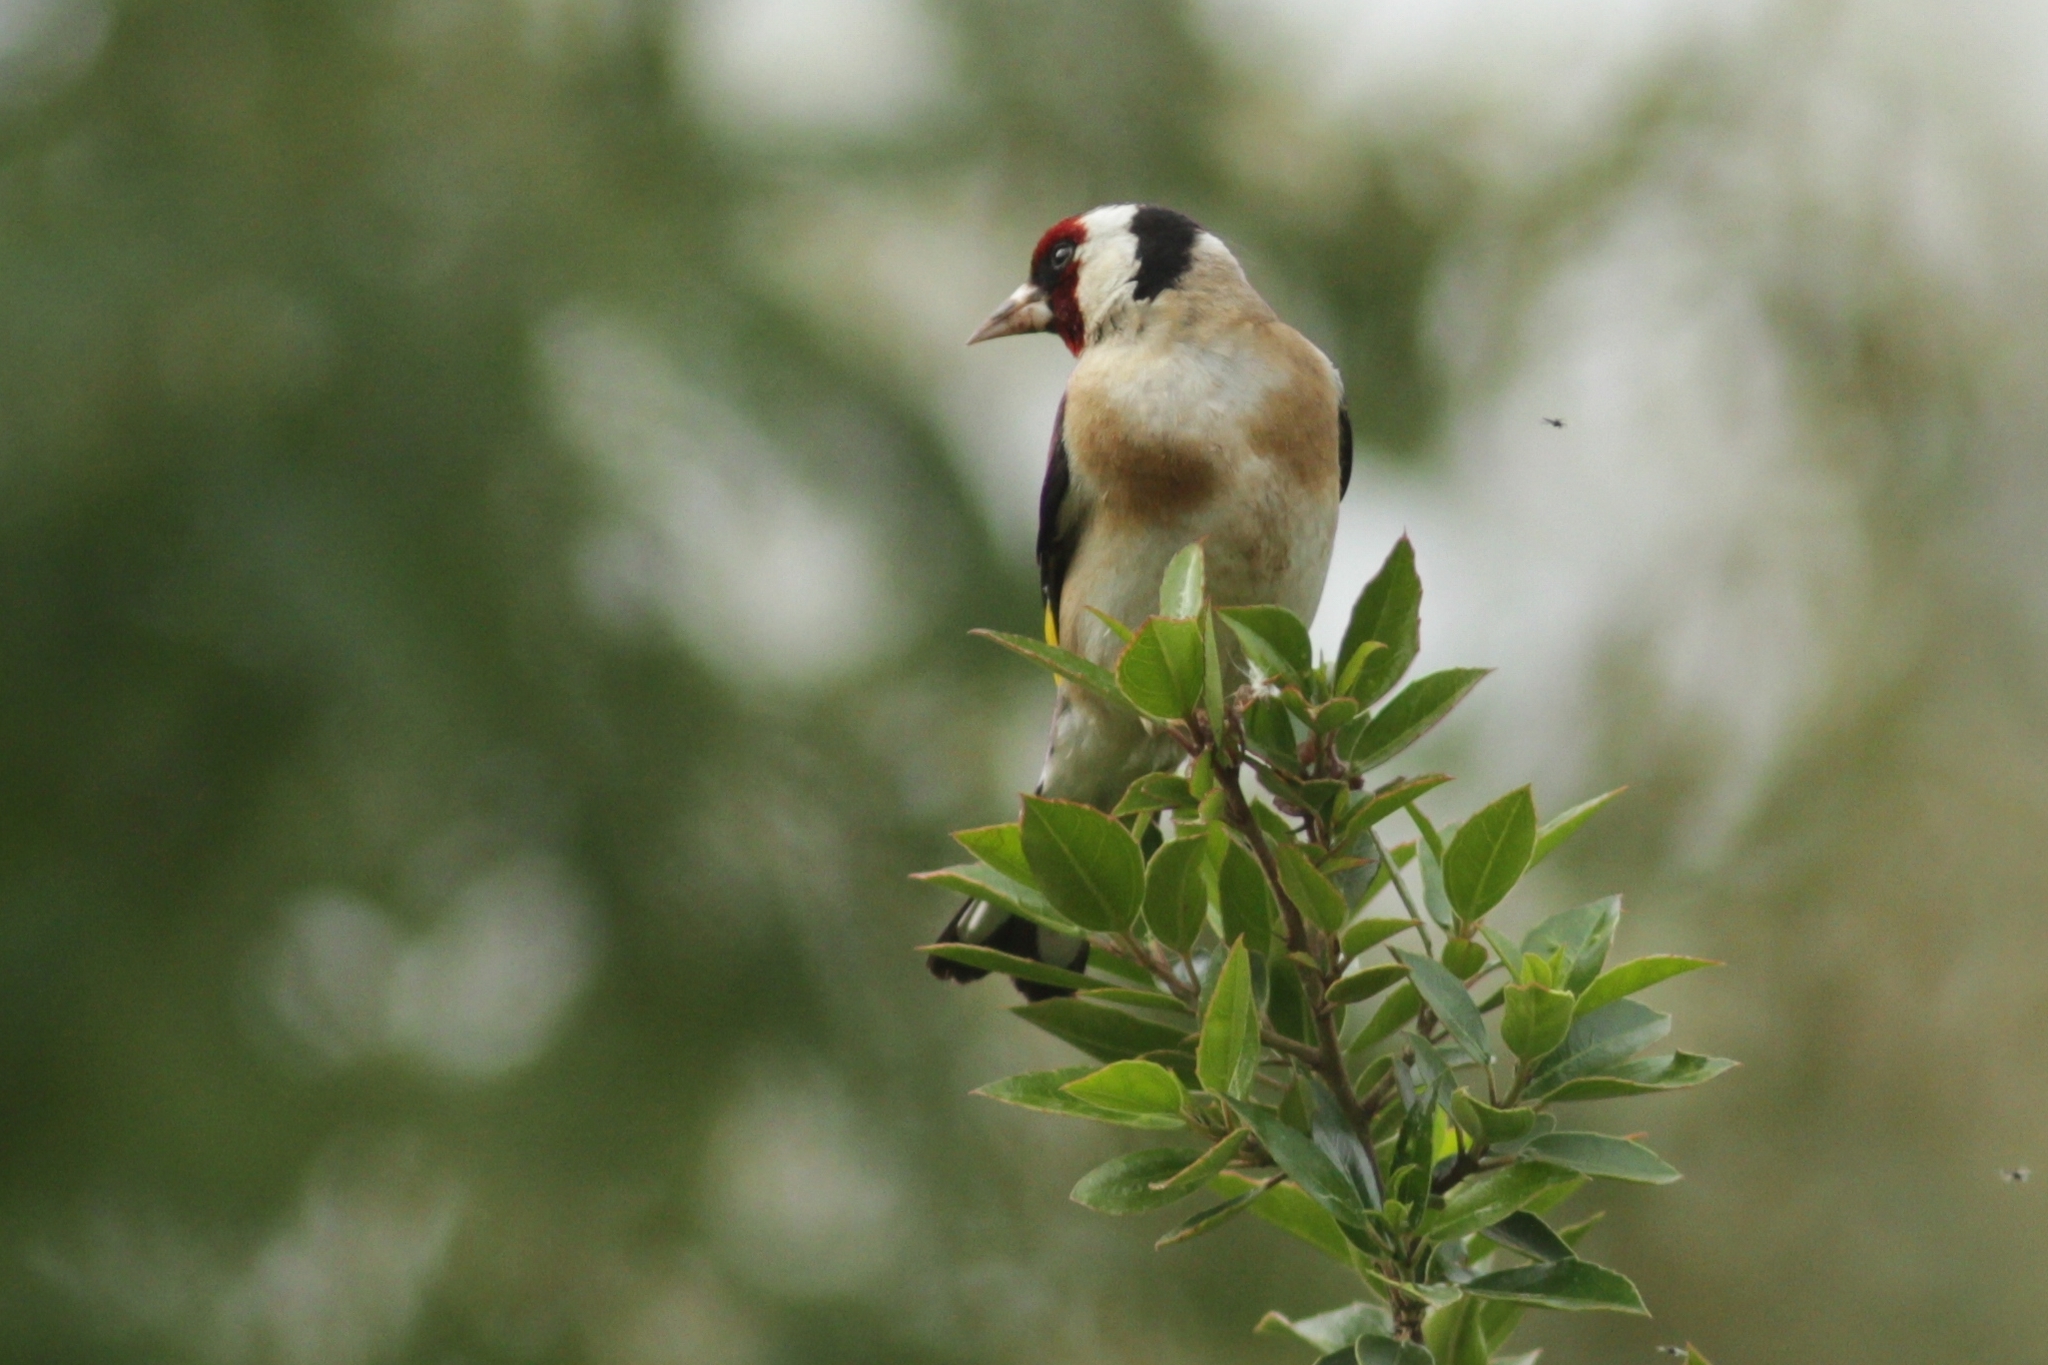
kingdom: Animalia
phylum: Chordata
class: Aves
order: Passeriformes
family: Fringillidae
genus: Carduelis
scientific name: Carduelis carduelis
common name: European goldfinch
